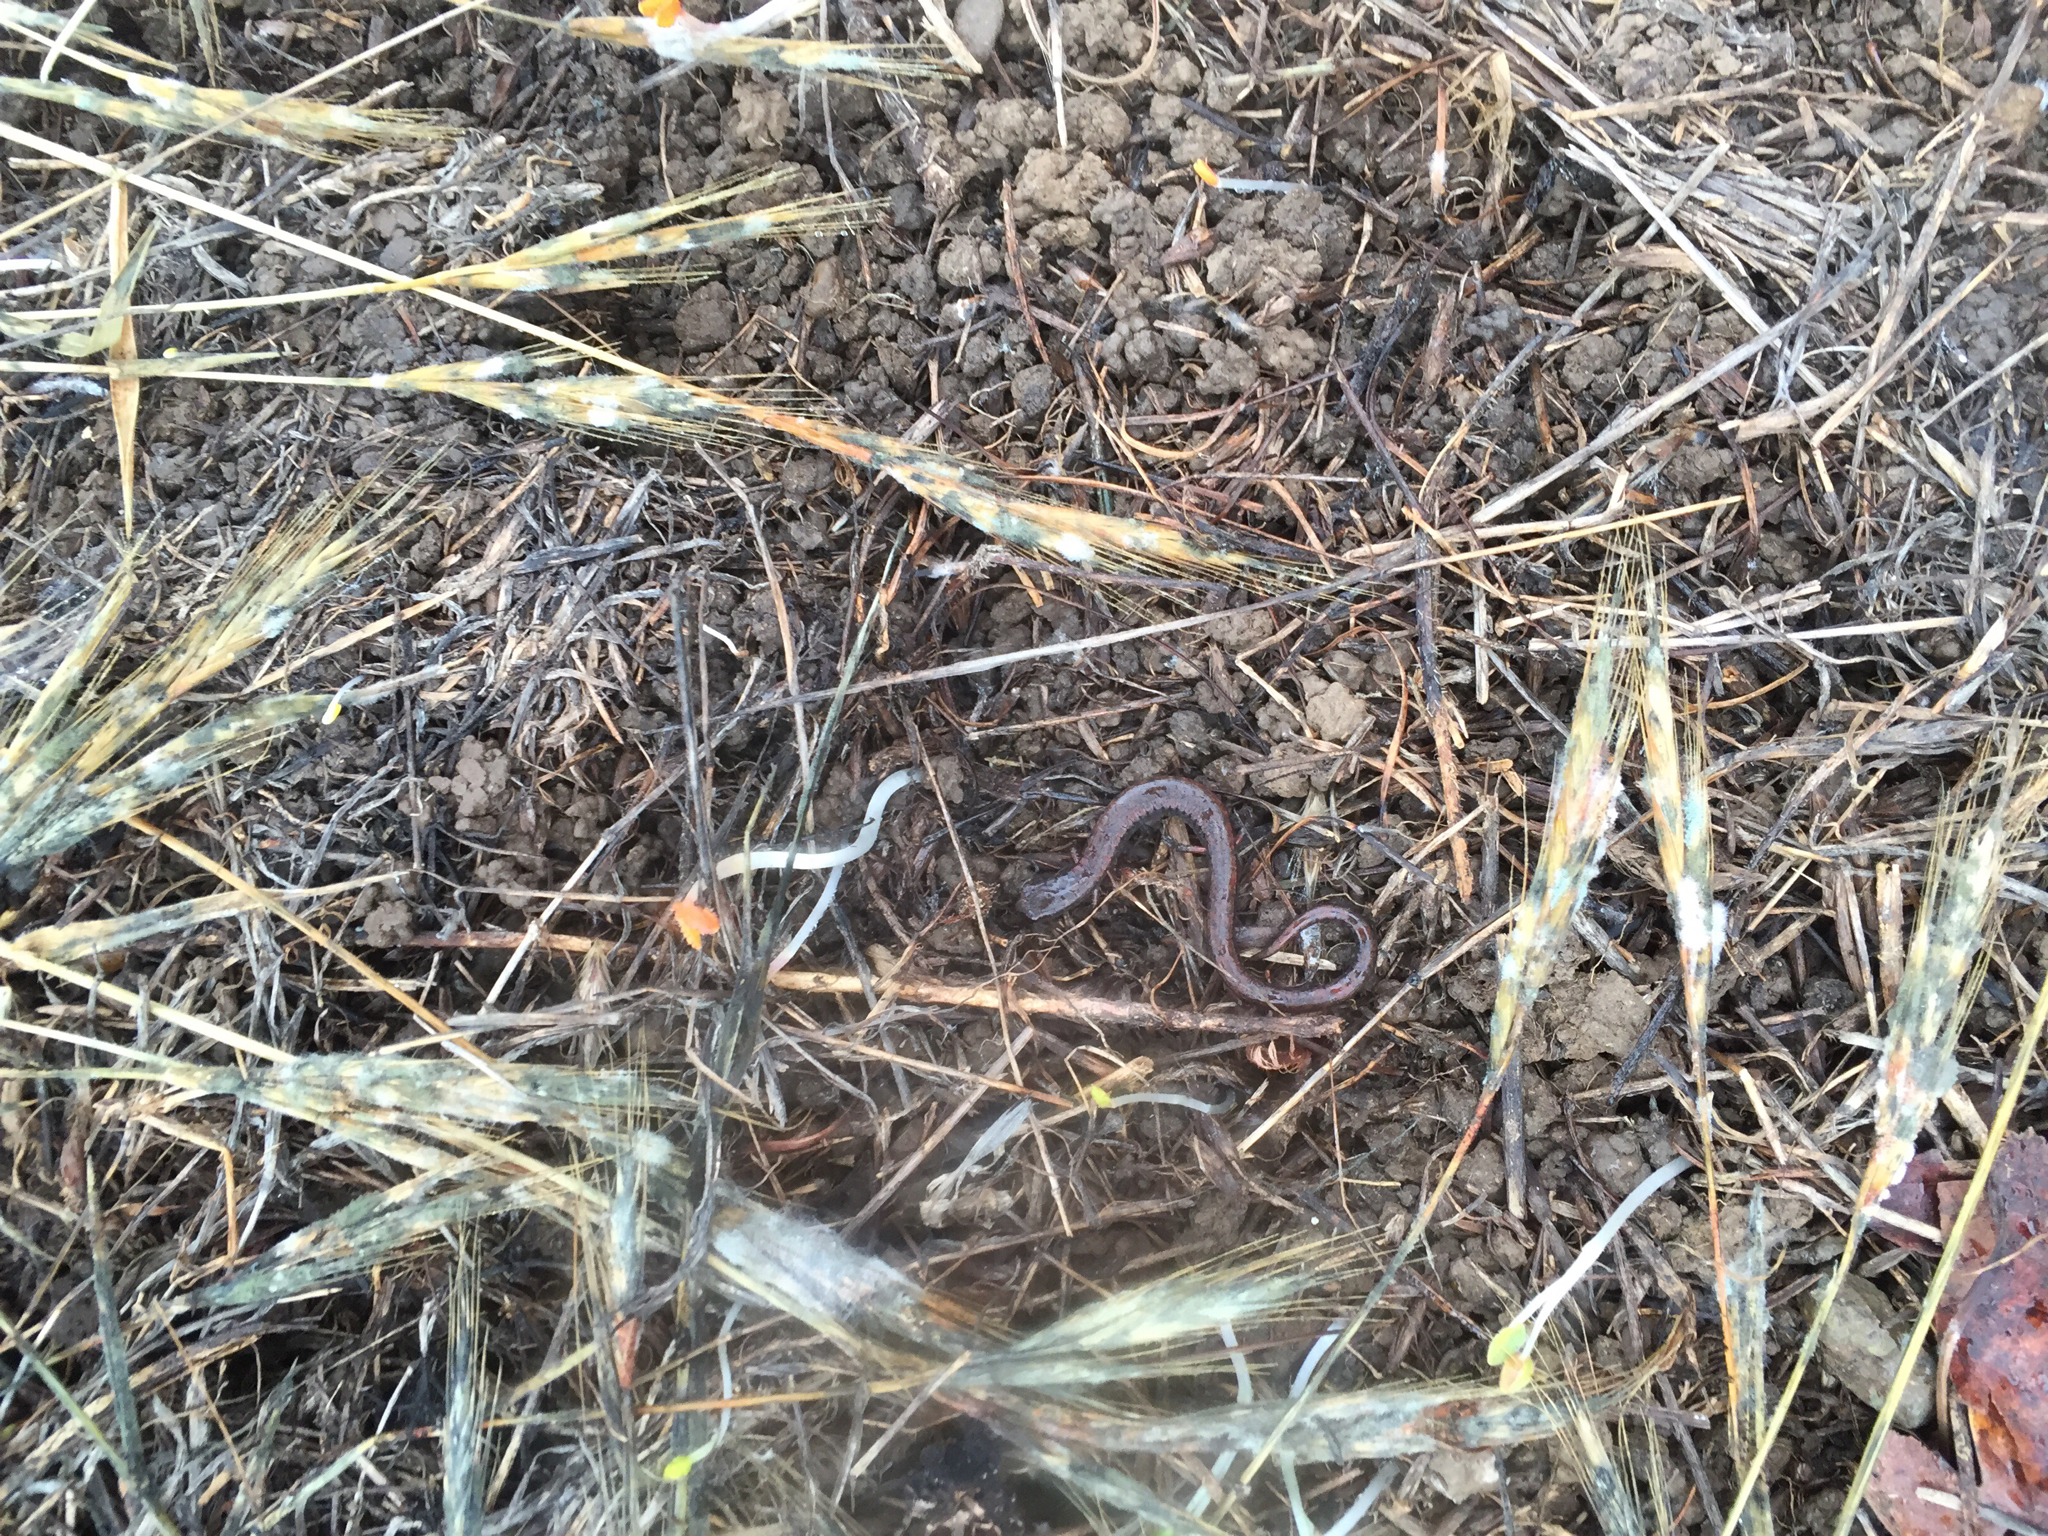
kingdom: Animalia
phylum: Chordata
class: Amphibia
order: Caudata
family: Plethodontidae
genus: Batrachoseps
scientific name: Batrachoseps attenuatus
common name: California slender salamander
